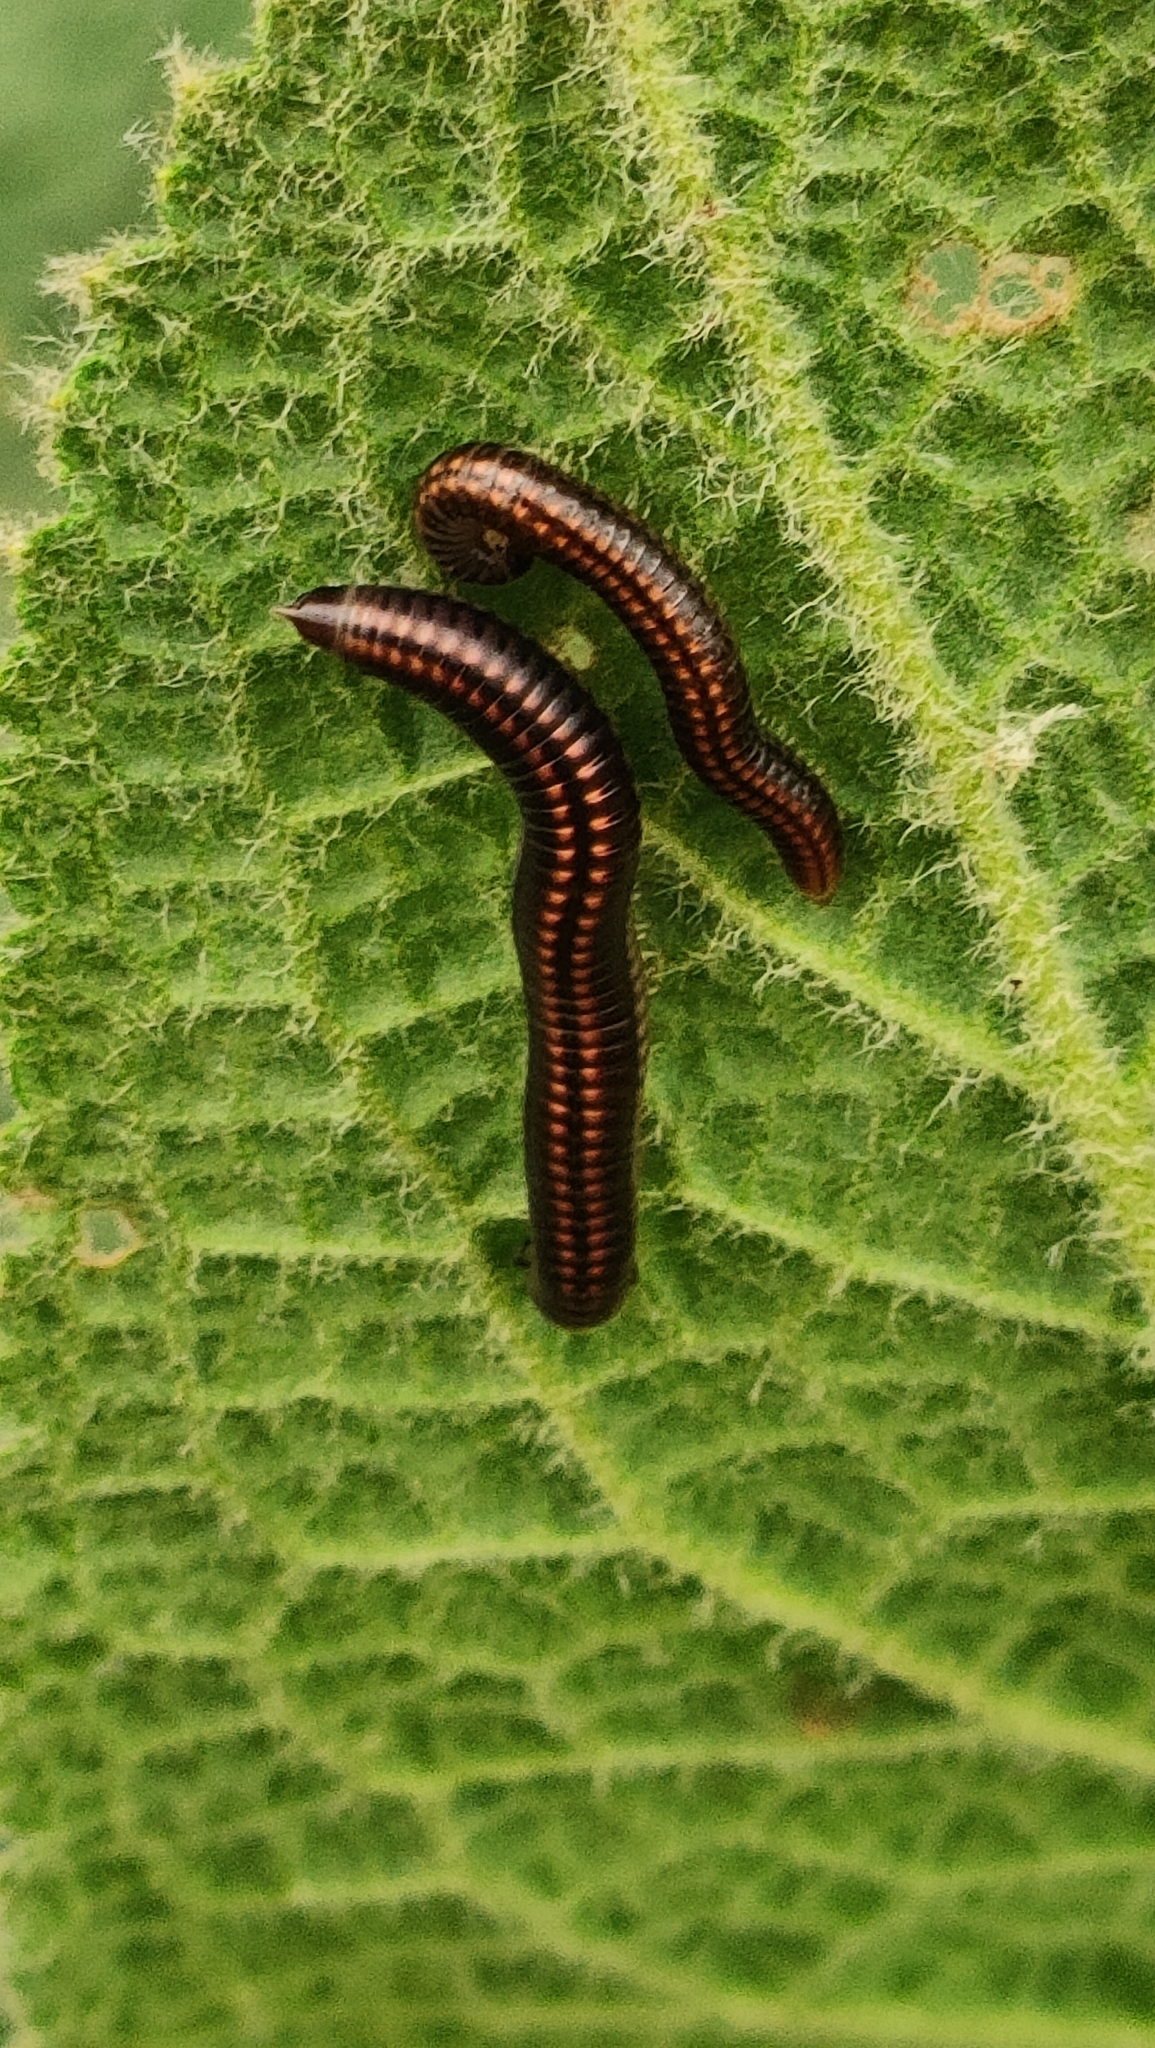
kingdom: Animalia
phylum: Arthropoda
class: Diplopoda
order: Julida
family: Julidae
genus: Ommatoiulus
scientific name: Ommatoiulus sabulosus
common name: Striped millipede
